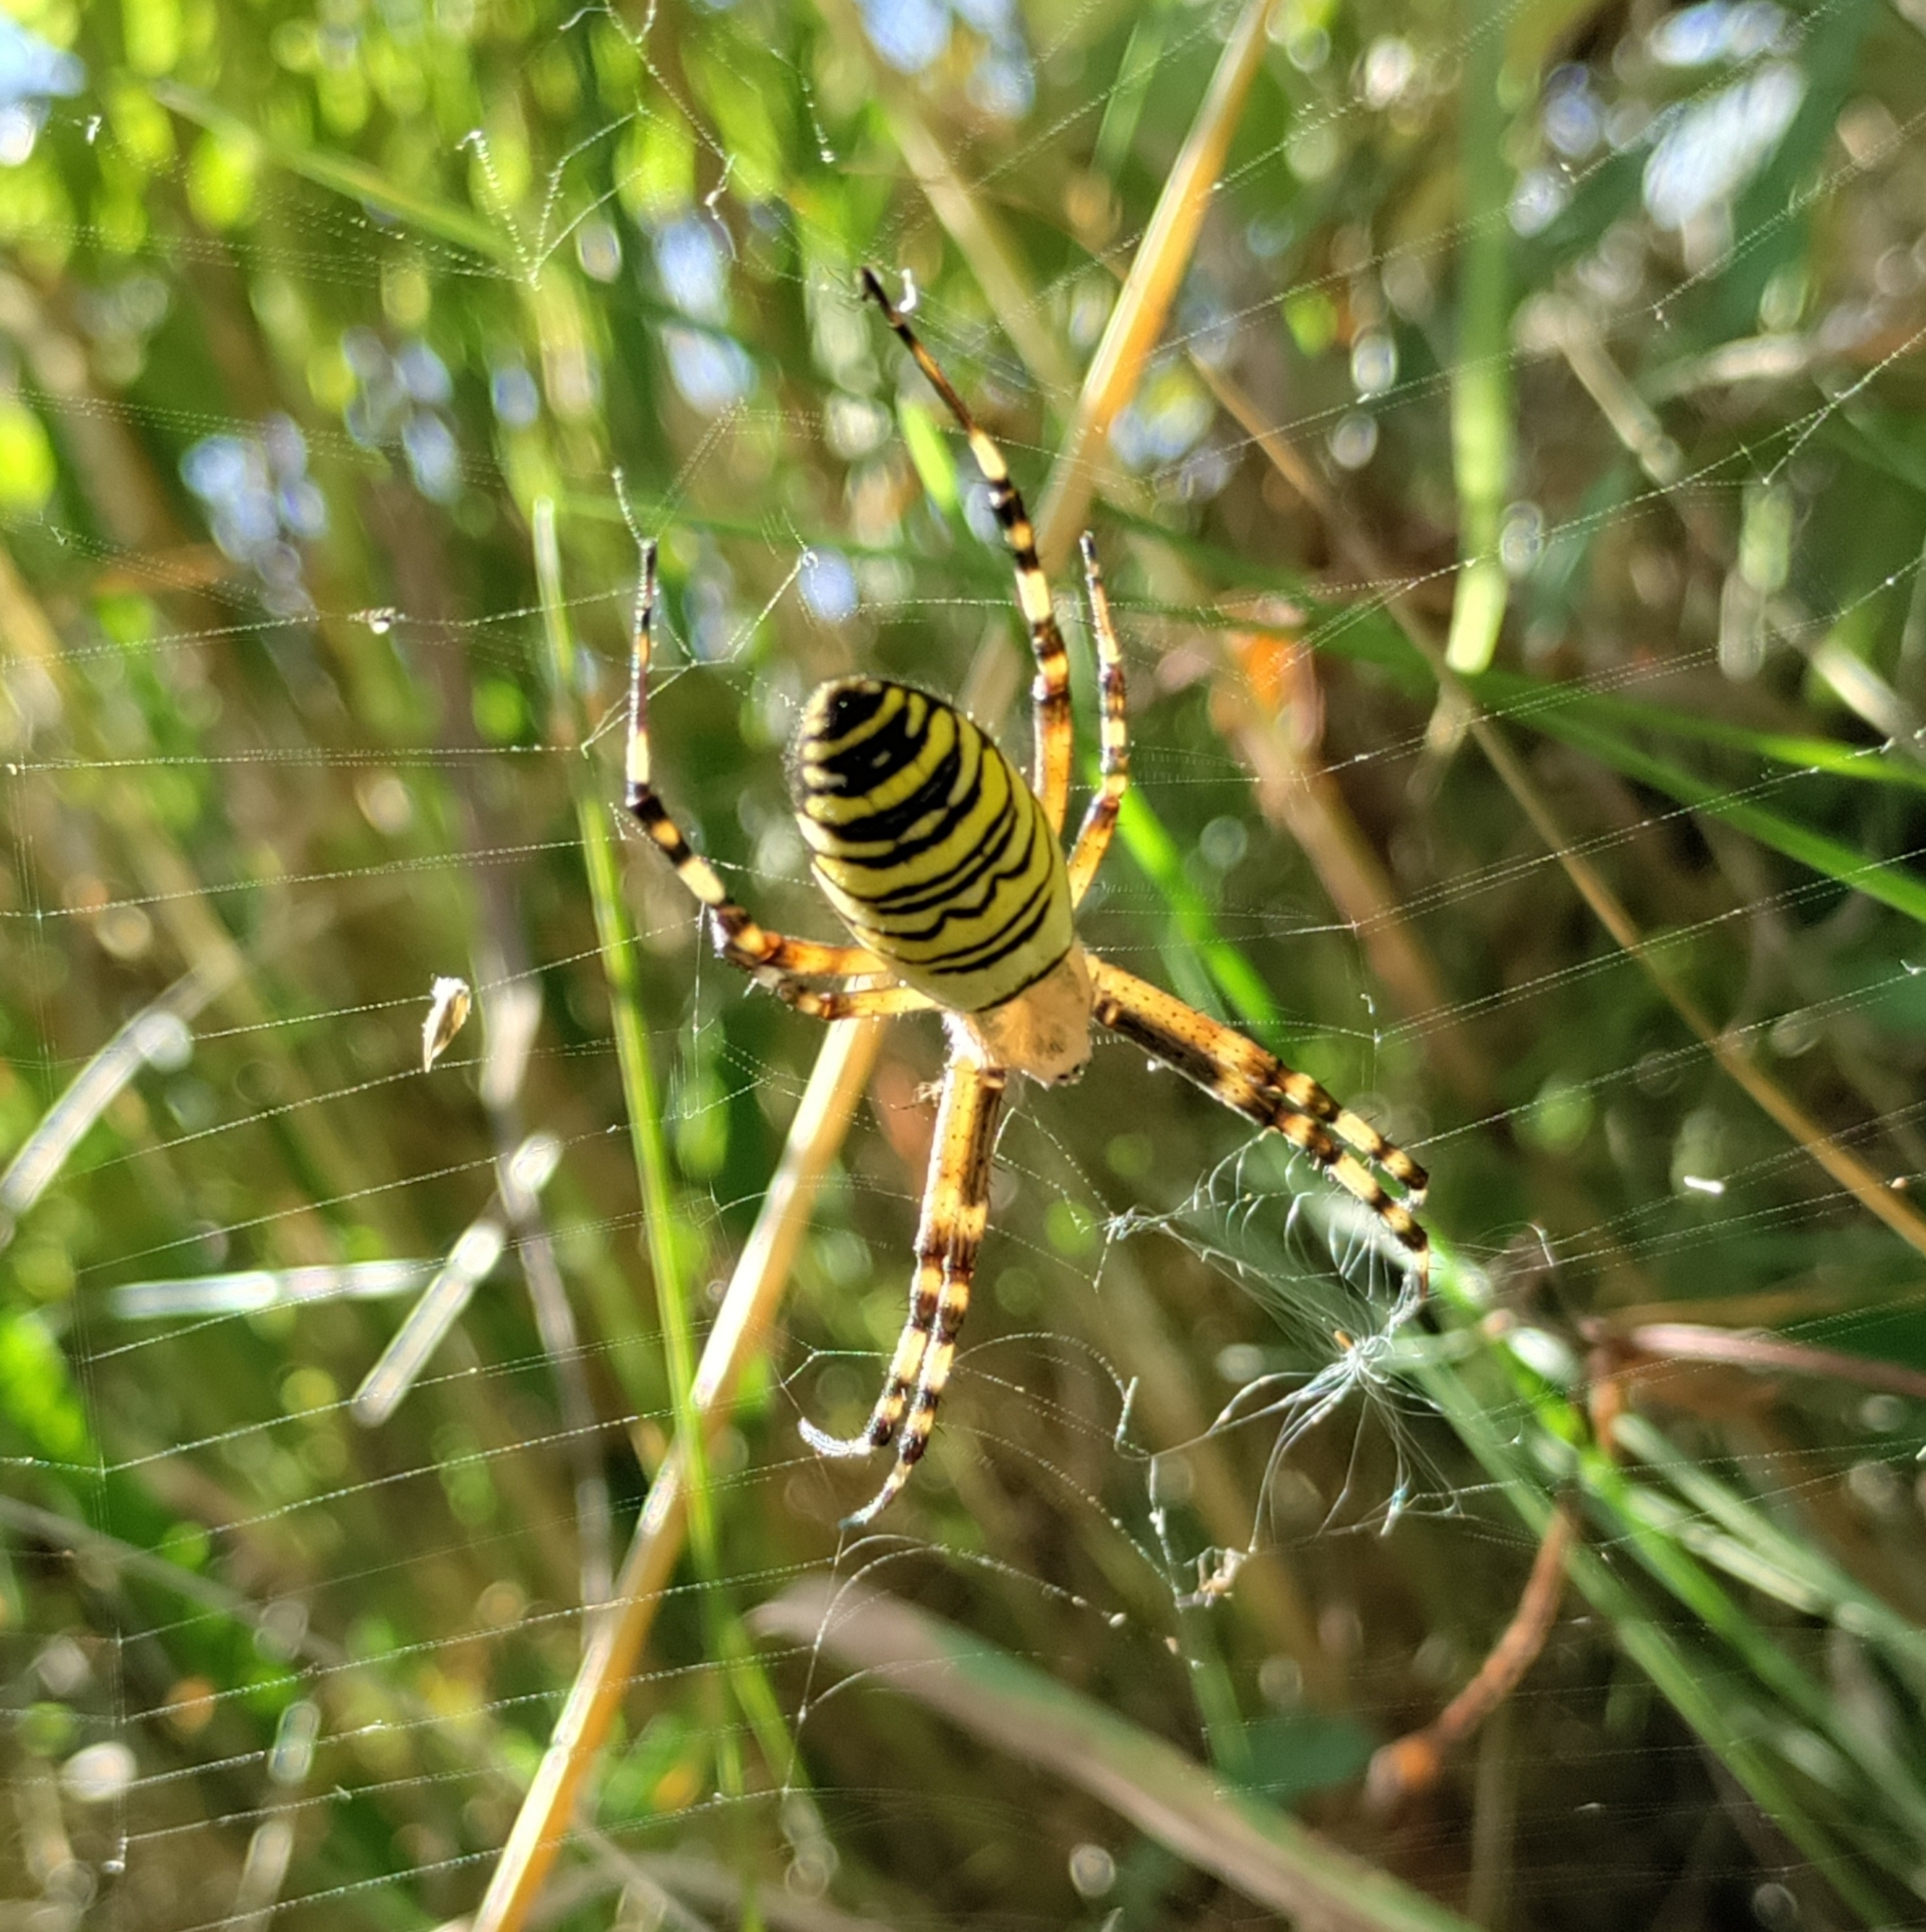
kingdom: Animalia
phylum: Arthropoda
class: Arachnida
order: Araneae
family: Araneidae
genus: Argiope
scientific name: Argiope bruennichi
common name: Wasp spider
